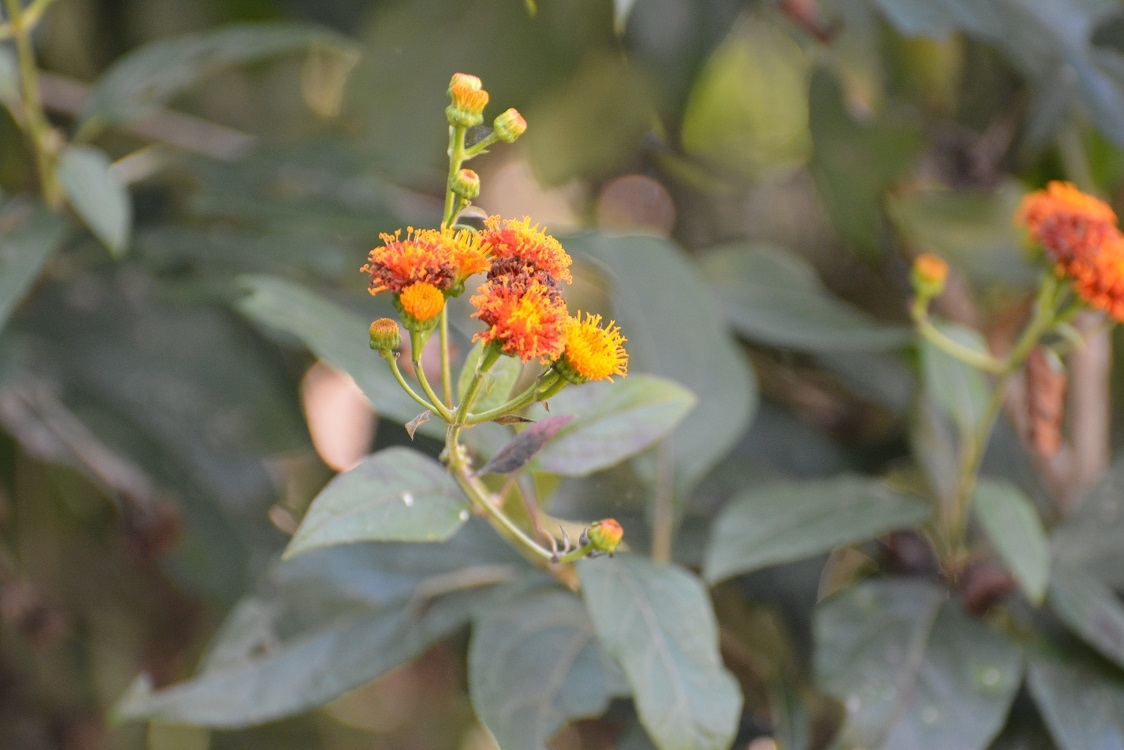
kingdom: Plantae
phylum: Tracheophyta
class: Magnoliopsida
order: Asterales
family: Asteraceae
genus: Verbesina
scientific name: Verbesina ovatifolia
